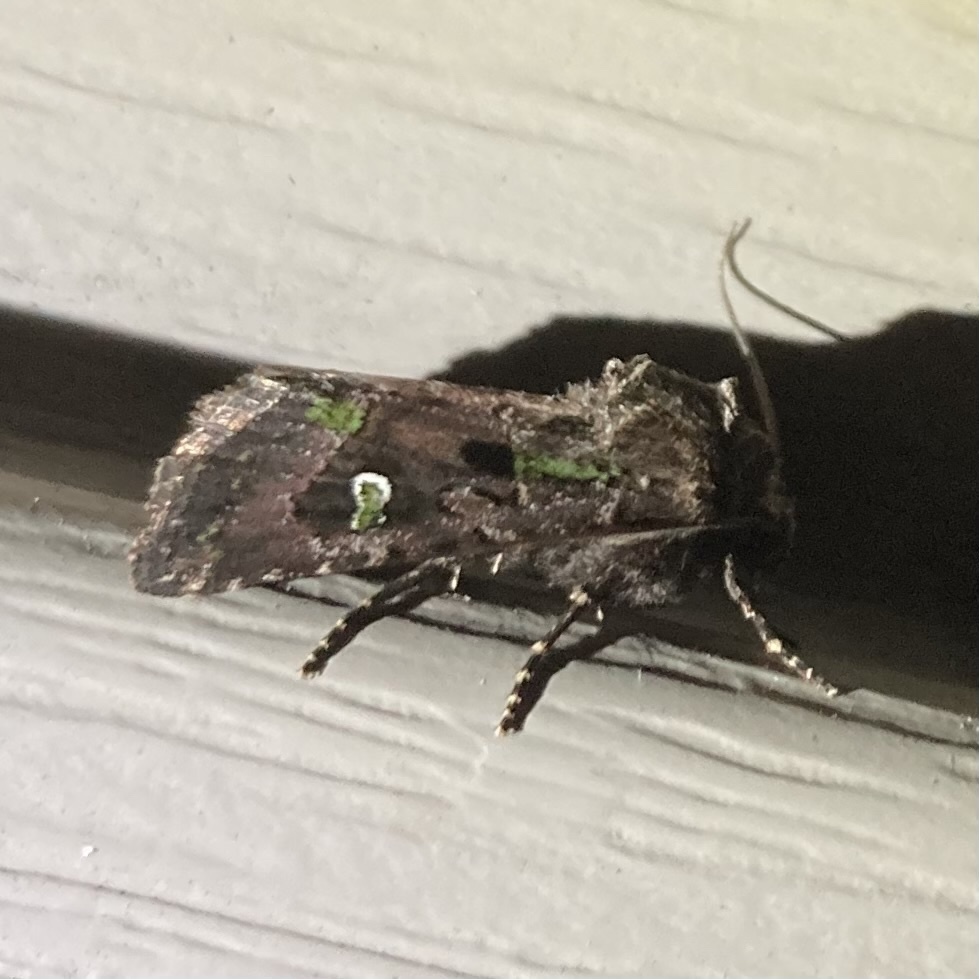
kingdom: Animalia
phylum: Arthropoda
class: Insecta
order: Lepidoptera
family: Noctuidae
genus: Lacinipolia
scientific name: Lacinipolia renigera
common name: Kidney-spotted minor
